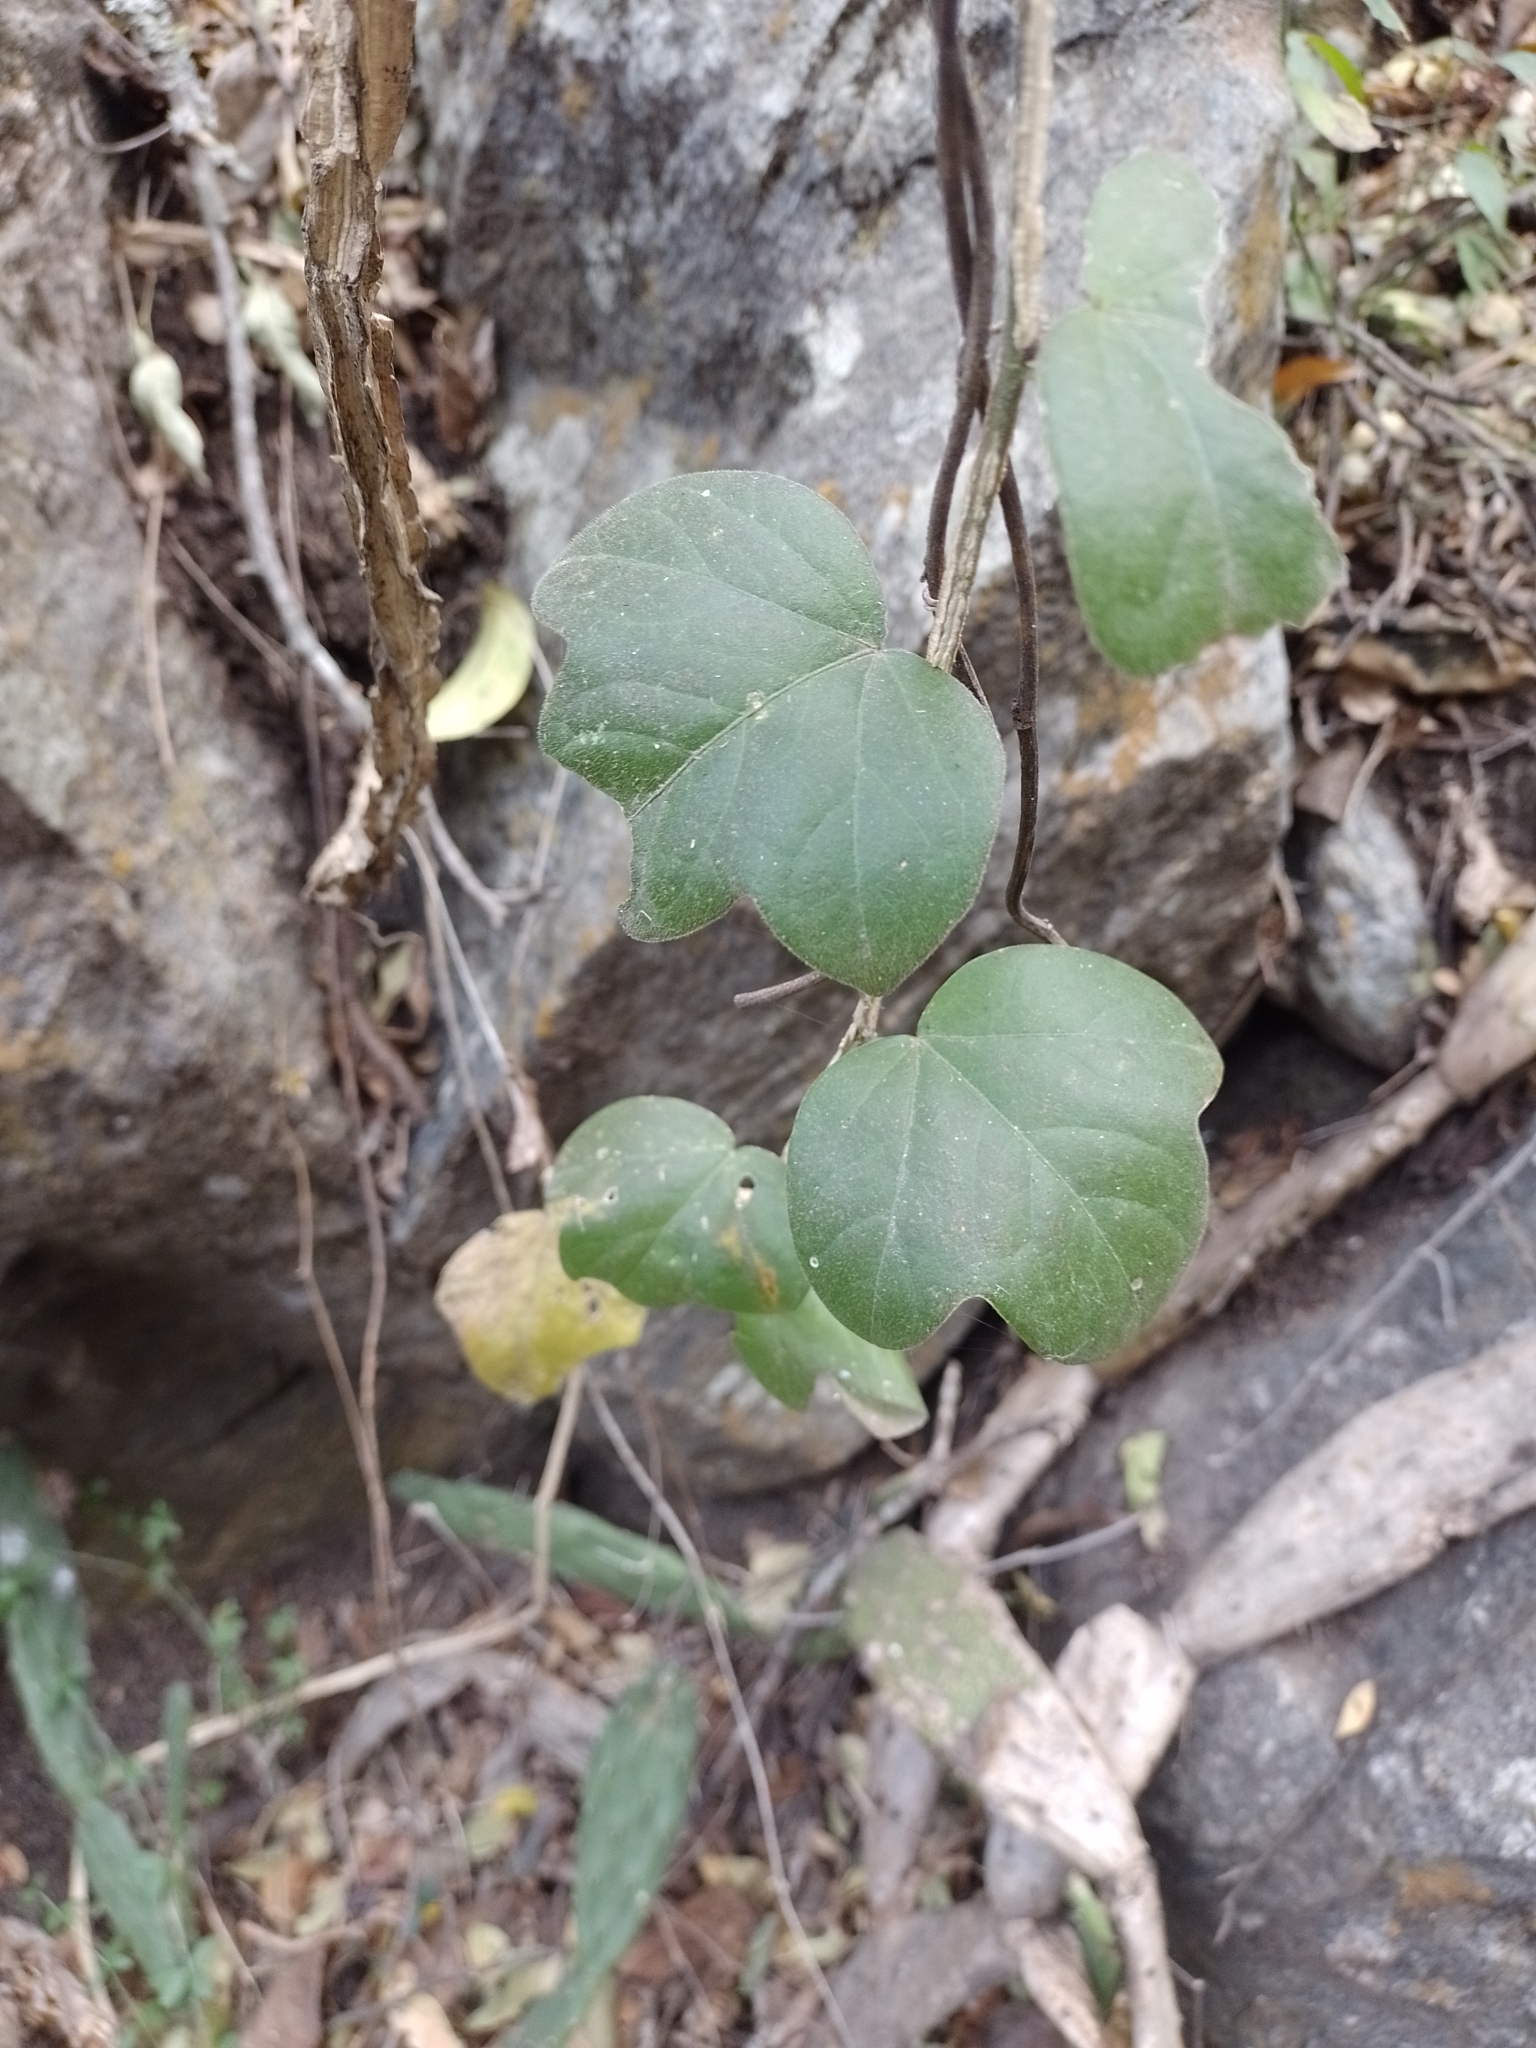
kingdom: Plantae
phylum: Tracheophyta
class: Magnoliopsida
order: Malpighiales
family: Passifloraceae
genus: Passiflora
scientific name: Passiflora suberosa
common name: Wild passionfruit
